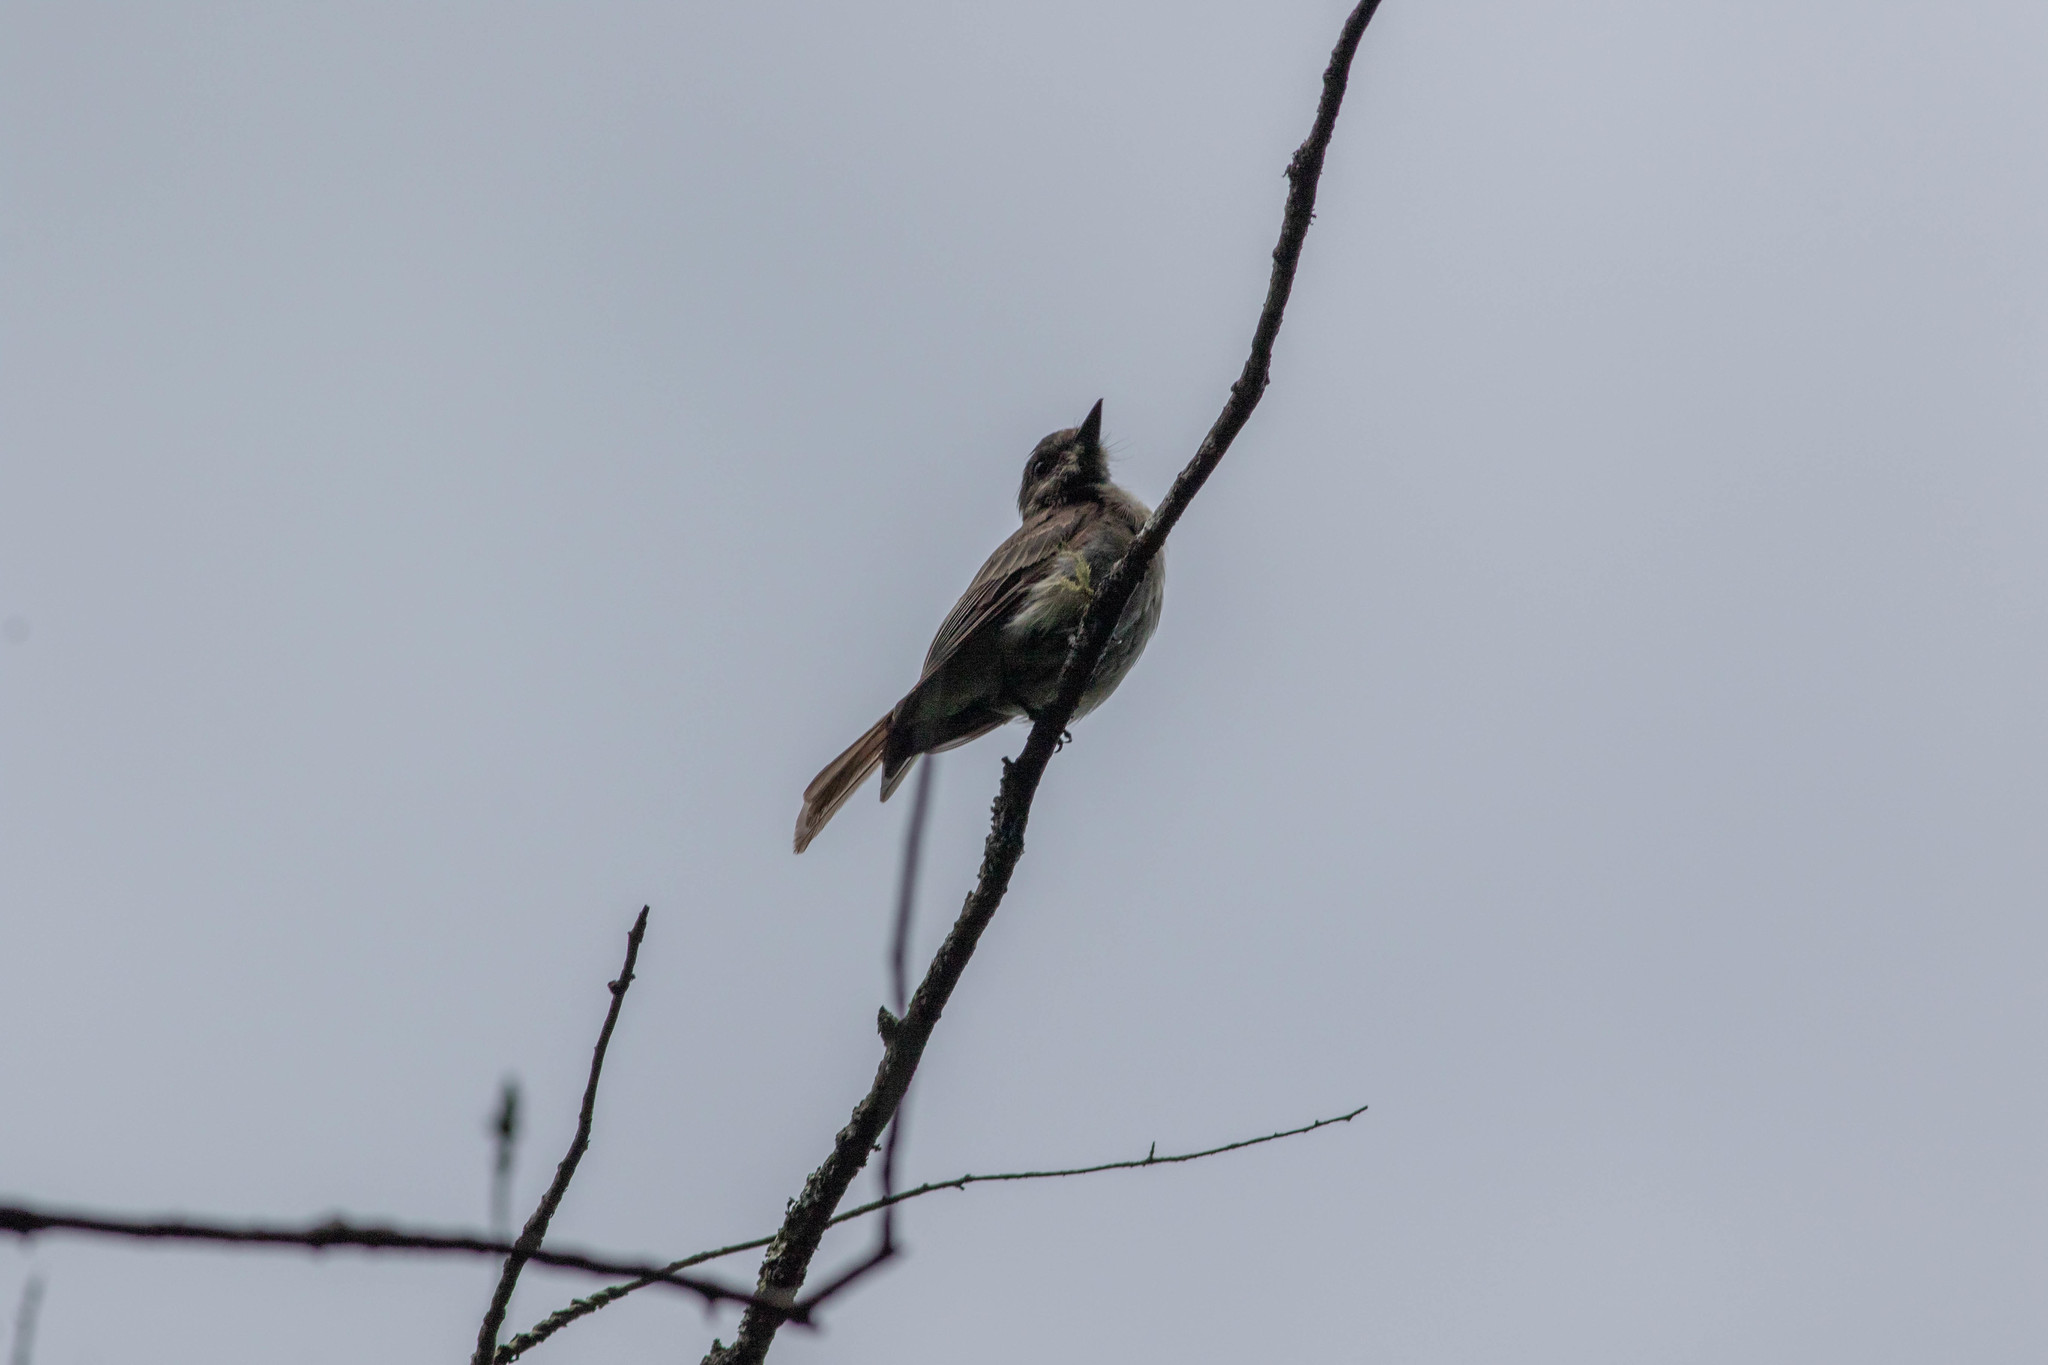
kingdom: Animalia
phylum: Chordata
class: Aves
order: Passeriformes
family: Tyrannidae
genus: Sayornis
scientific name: Sayornis phoebe
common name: Eastern phoebe
